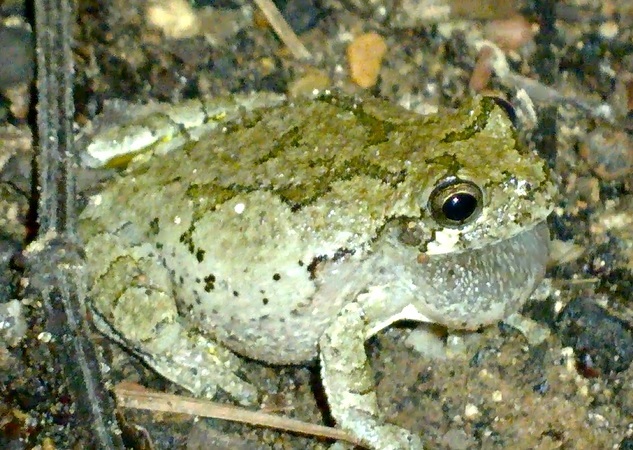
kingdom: Animalia
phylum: Chordata
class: Amphibia
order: Anura
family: Hylidae
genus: Dryophytes
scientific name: Dryophytes versicolor
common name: Gray treefrog
